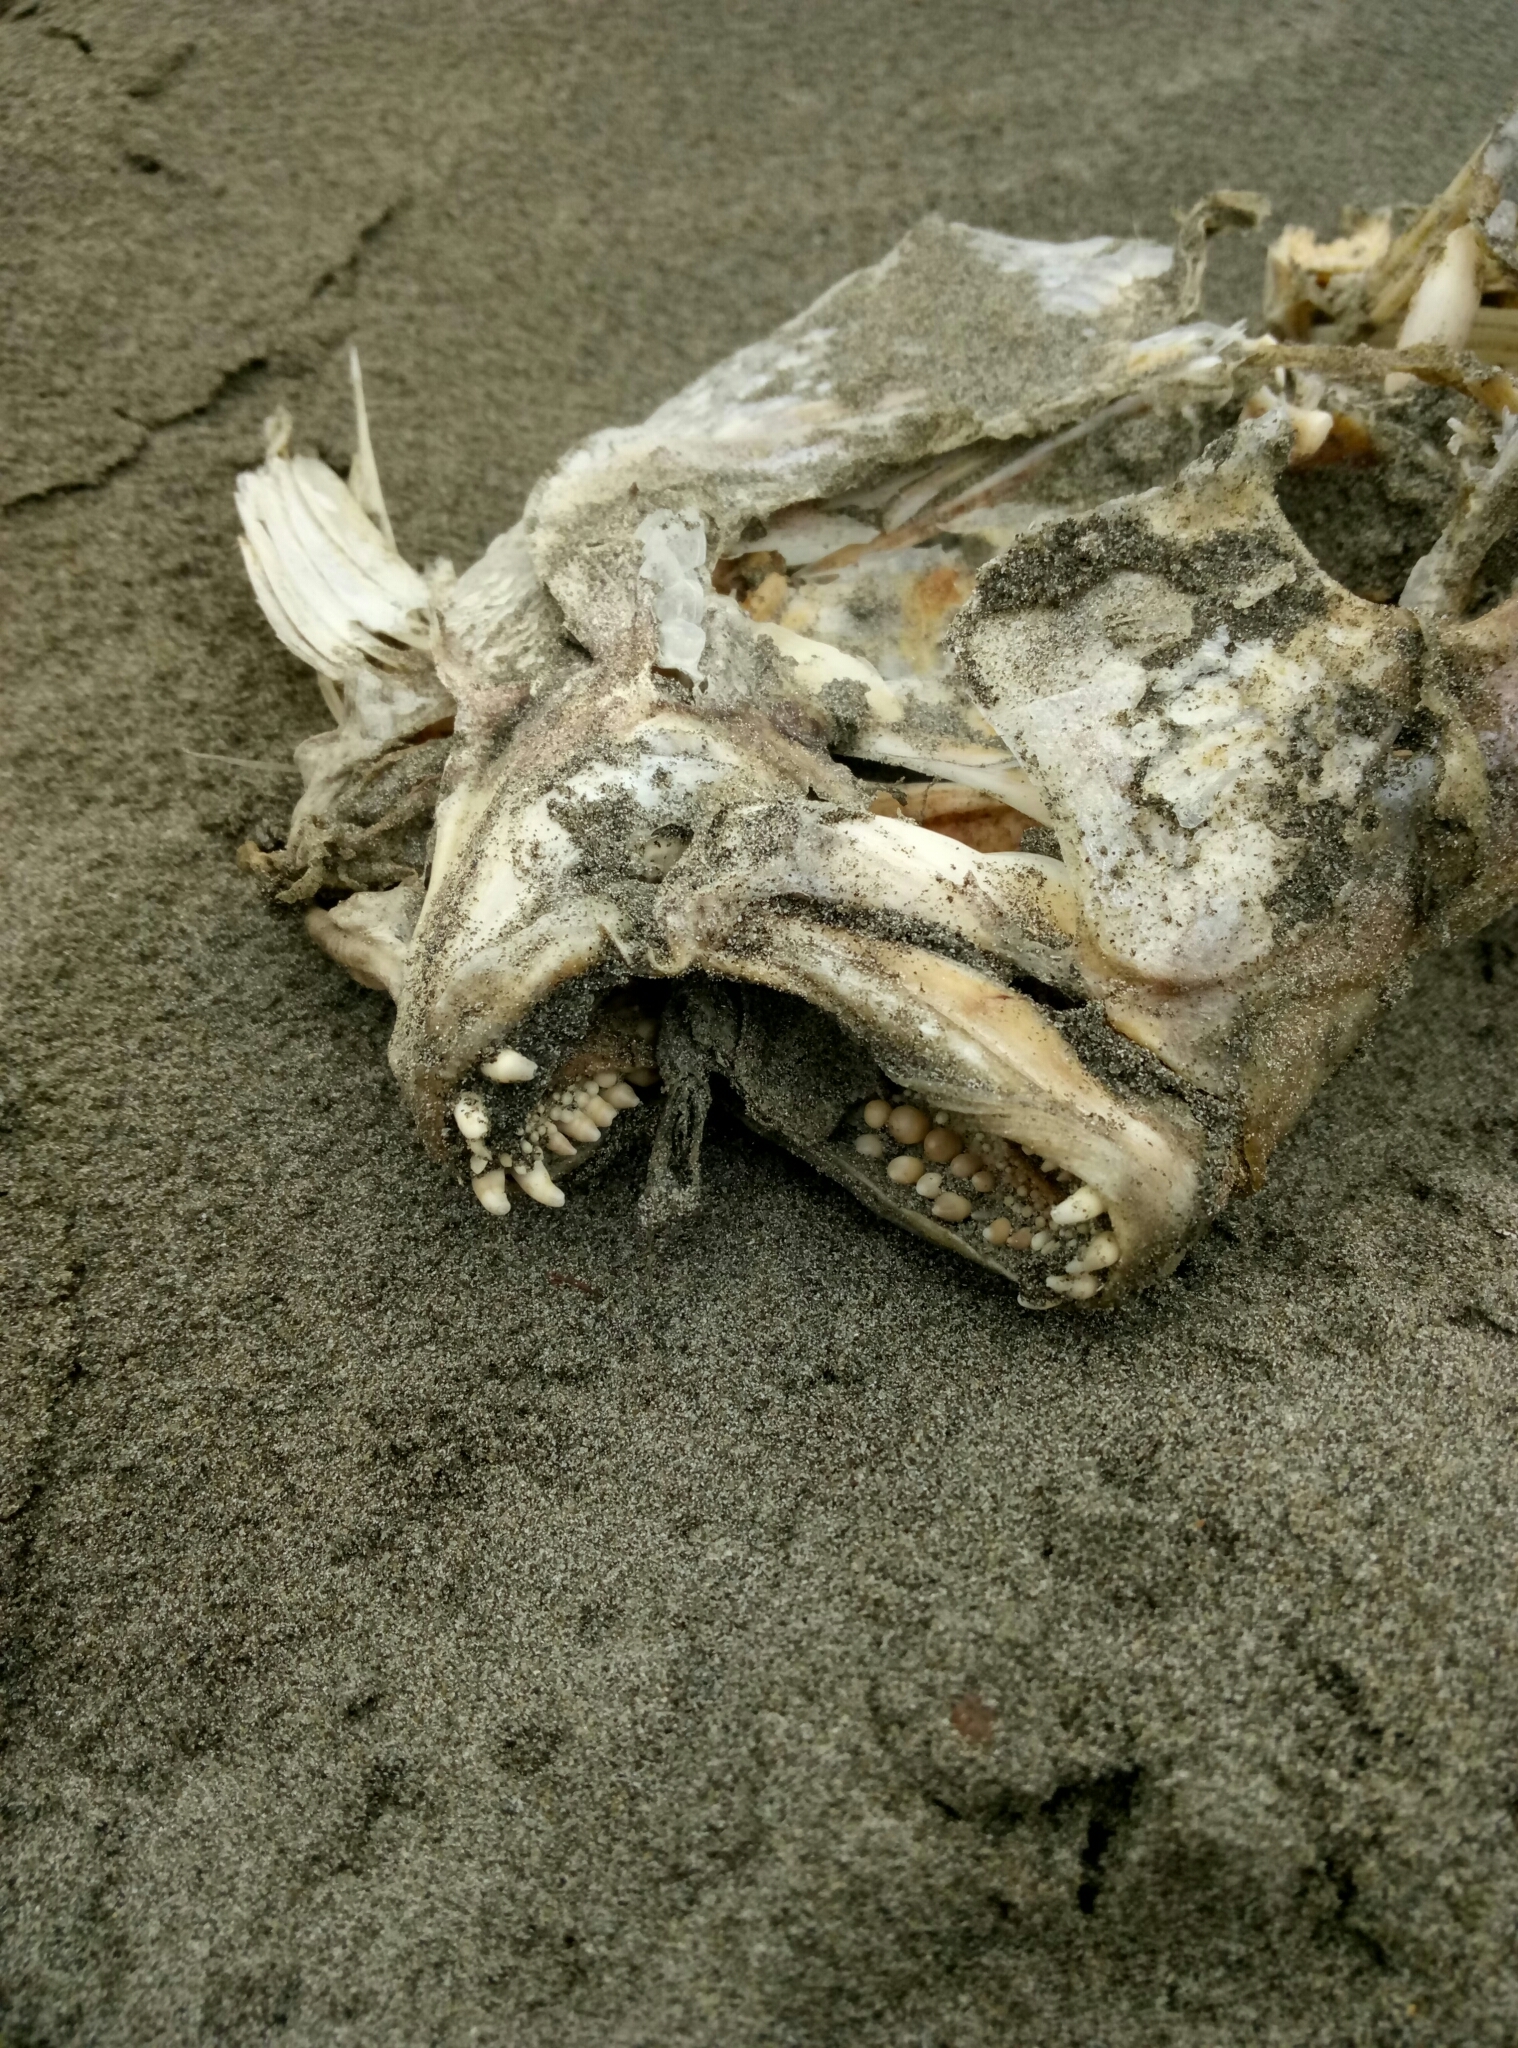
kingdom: Animalia
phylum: Chordata
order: Perciformes
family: Sparidae
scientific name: Sparidae
